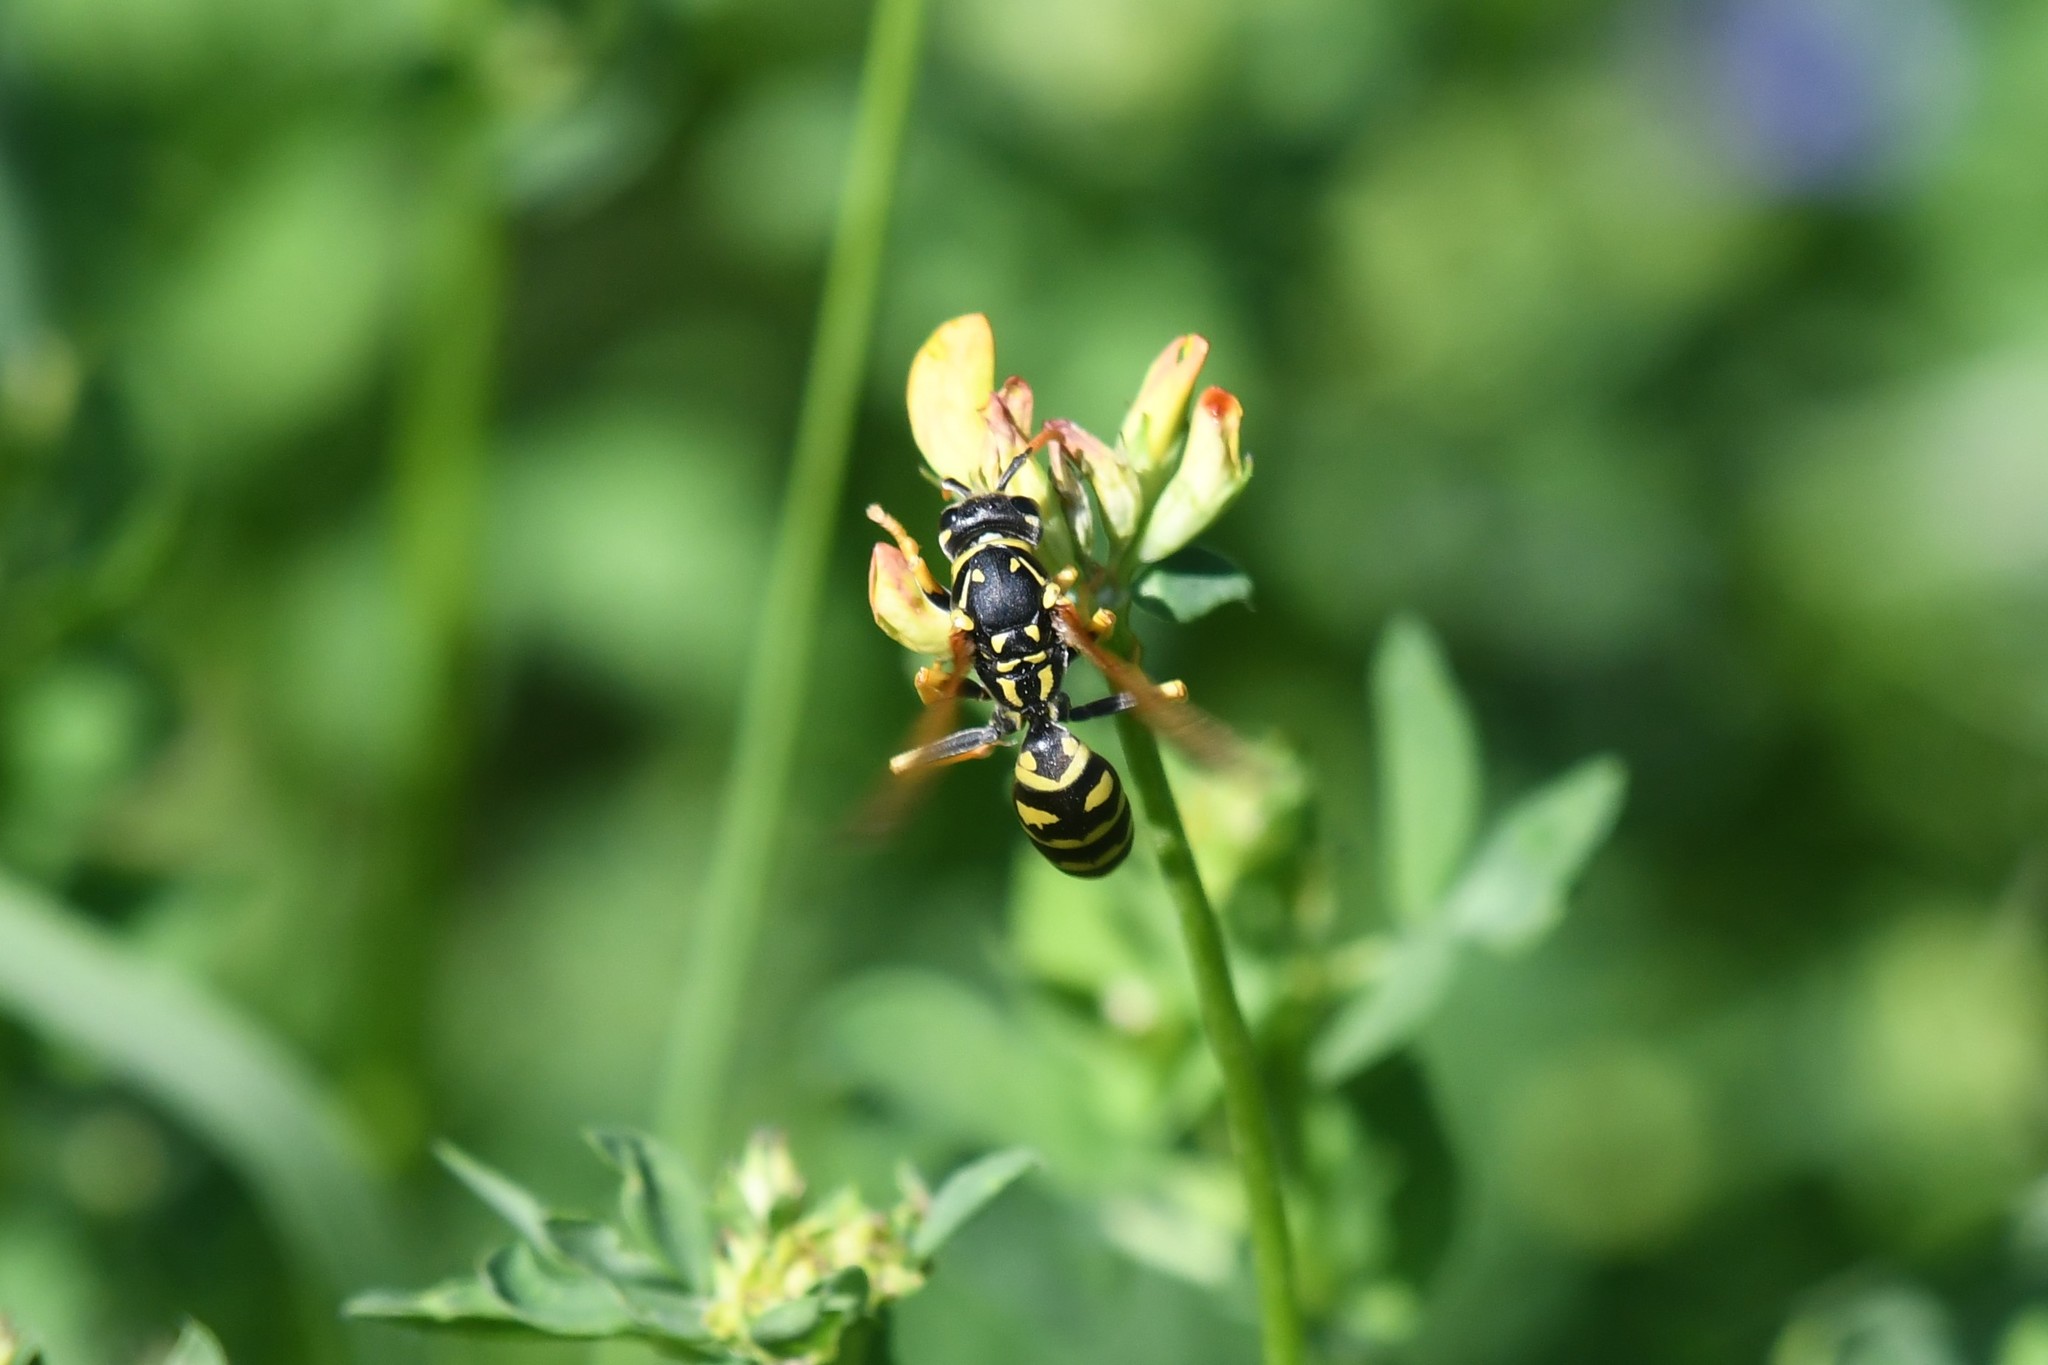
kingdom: Animalia
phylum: Arthropoda
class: Insecta
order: Hymenoptera
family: Eumenidae
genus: Polistes
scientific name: Polistes dominula
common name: Paper wasp
